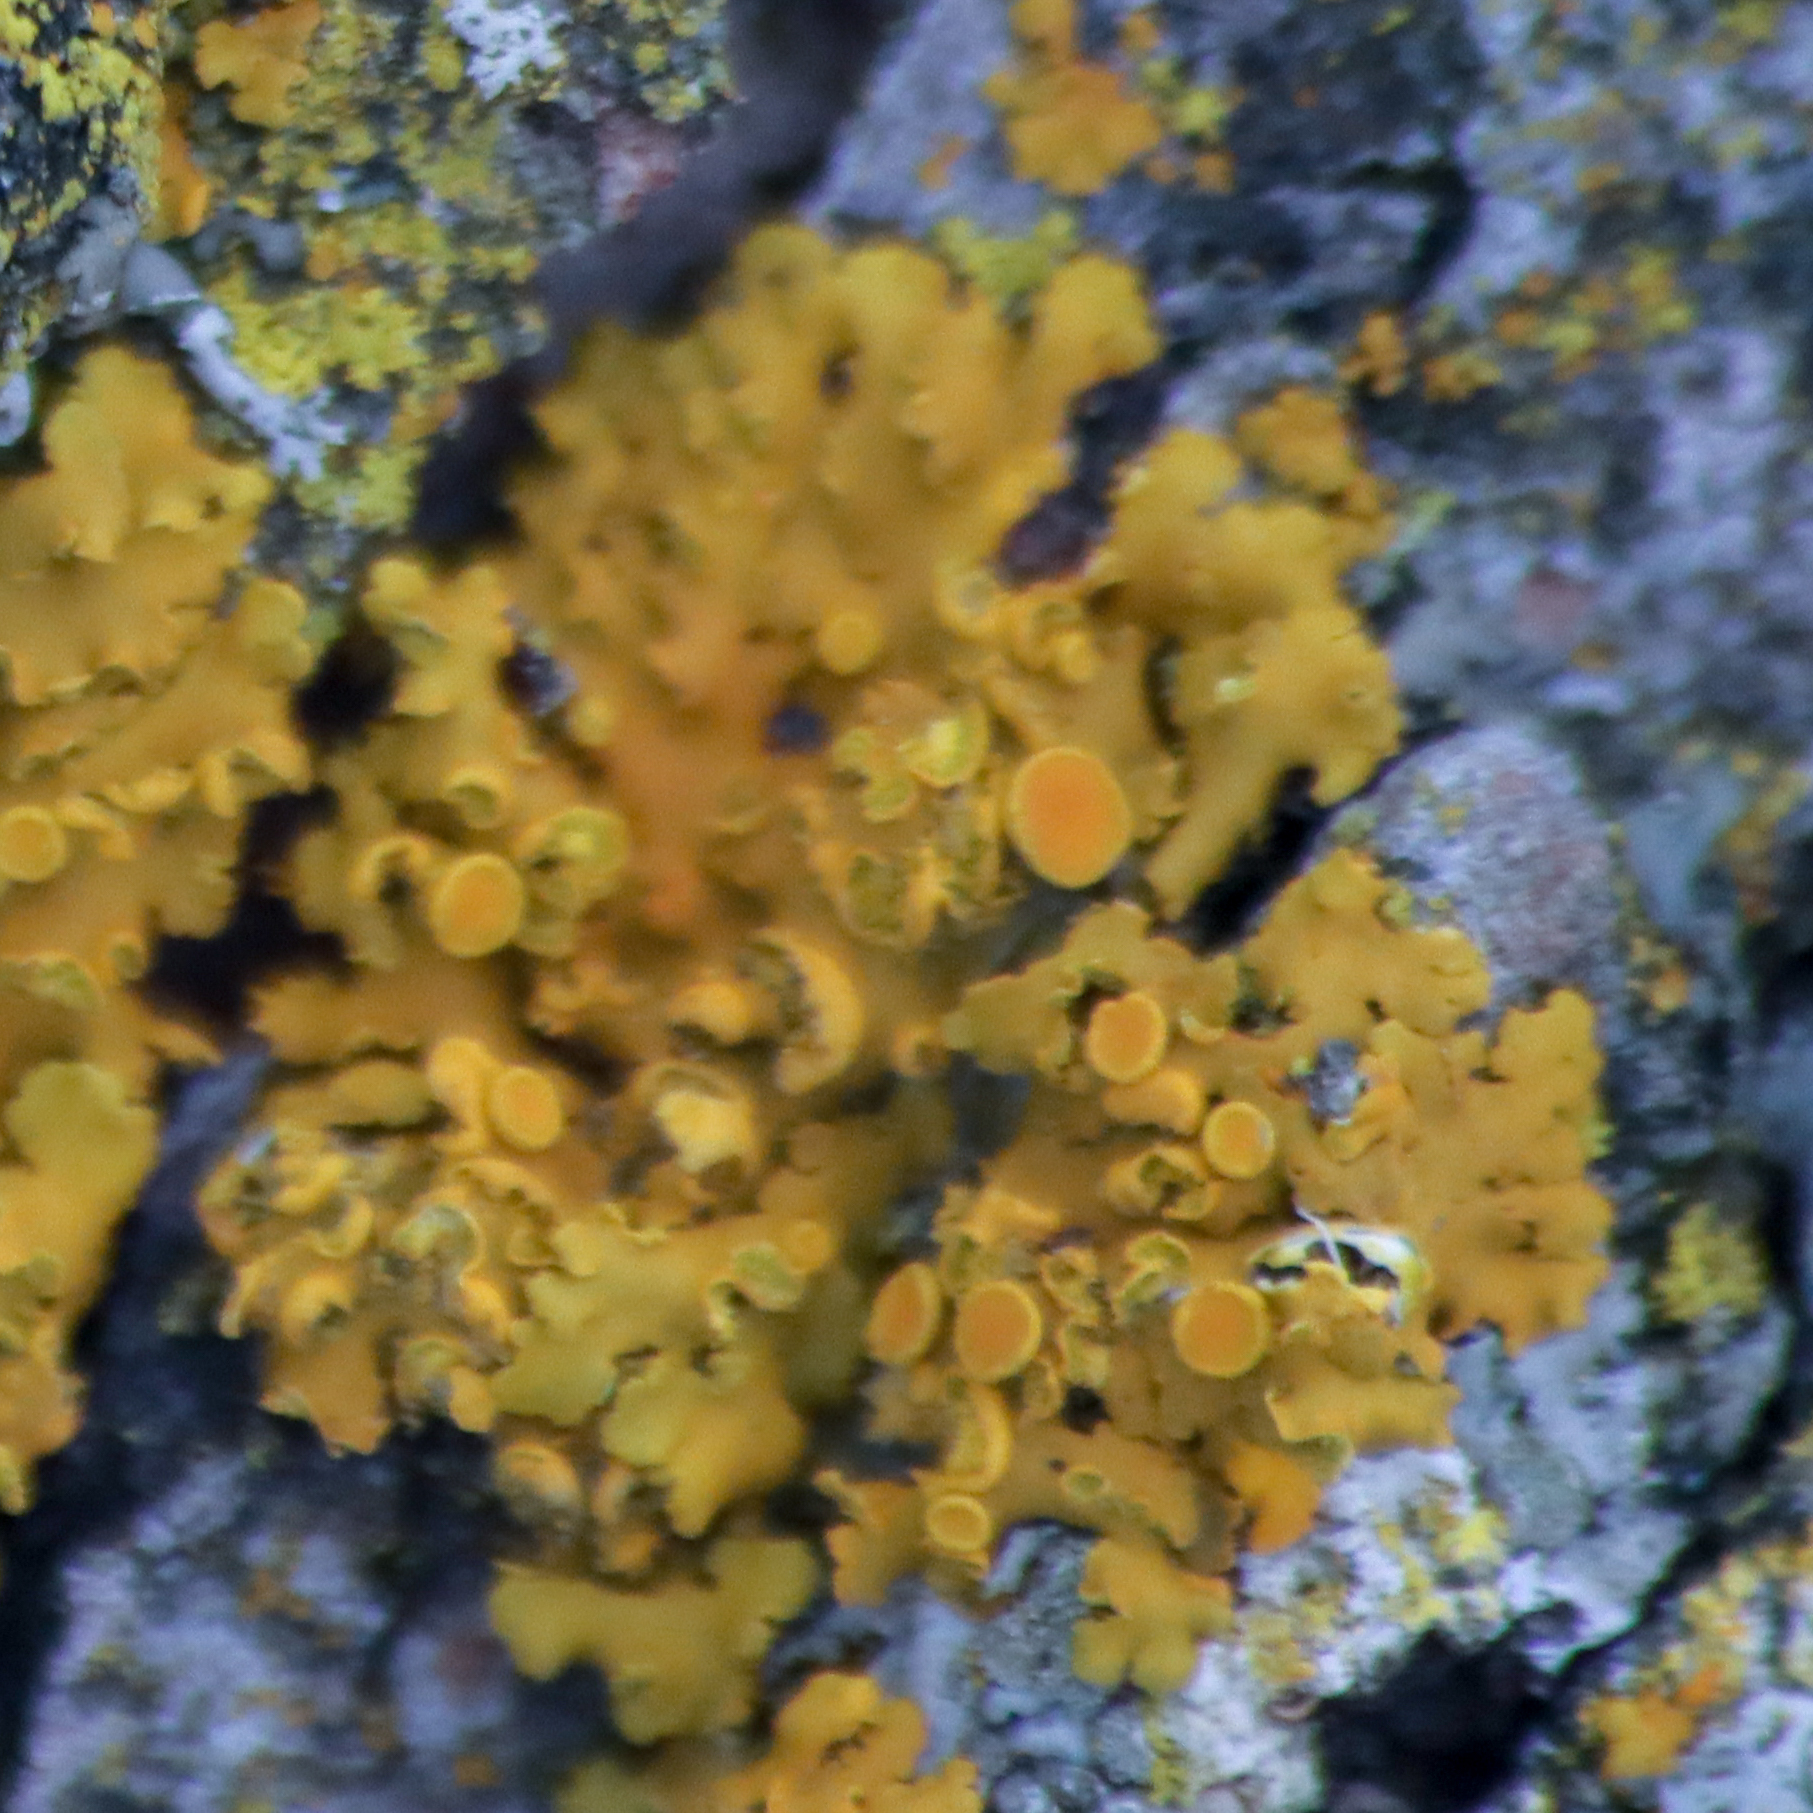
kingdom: Fungi
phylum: Ascomycota
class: Lecanoromycetes
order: Teloschistales
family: Teloschistaceae
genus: Oxneria
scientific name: Oxneria fallax
